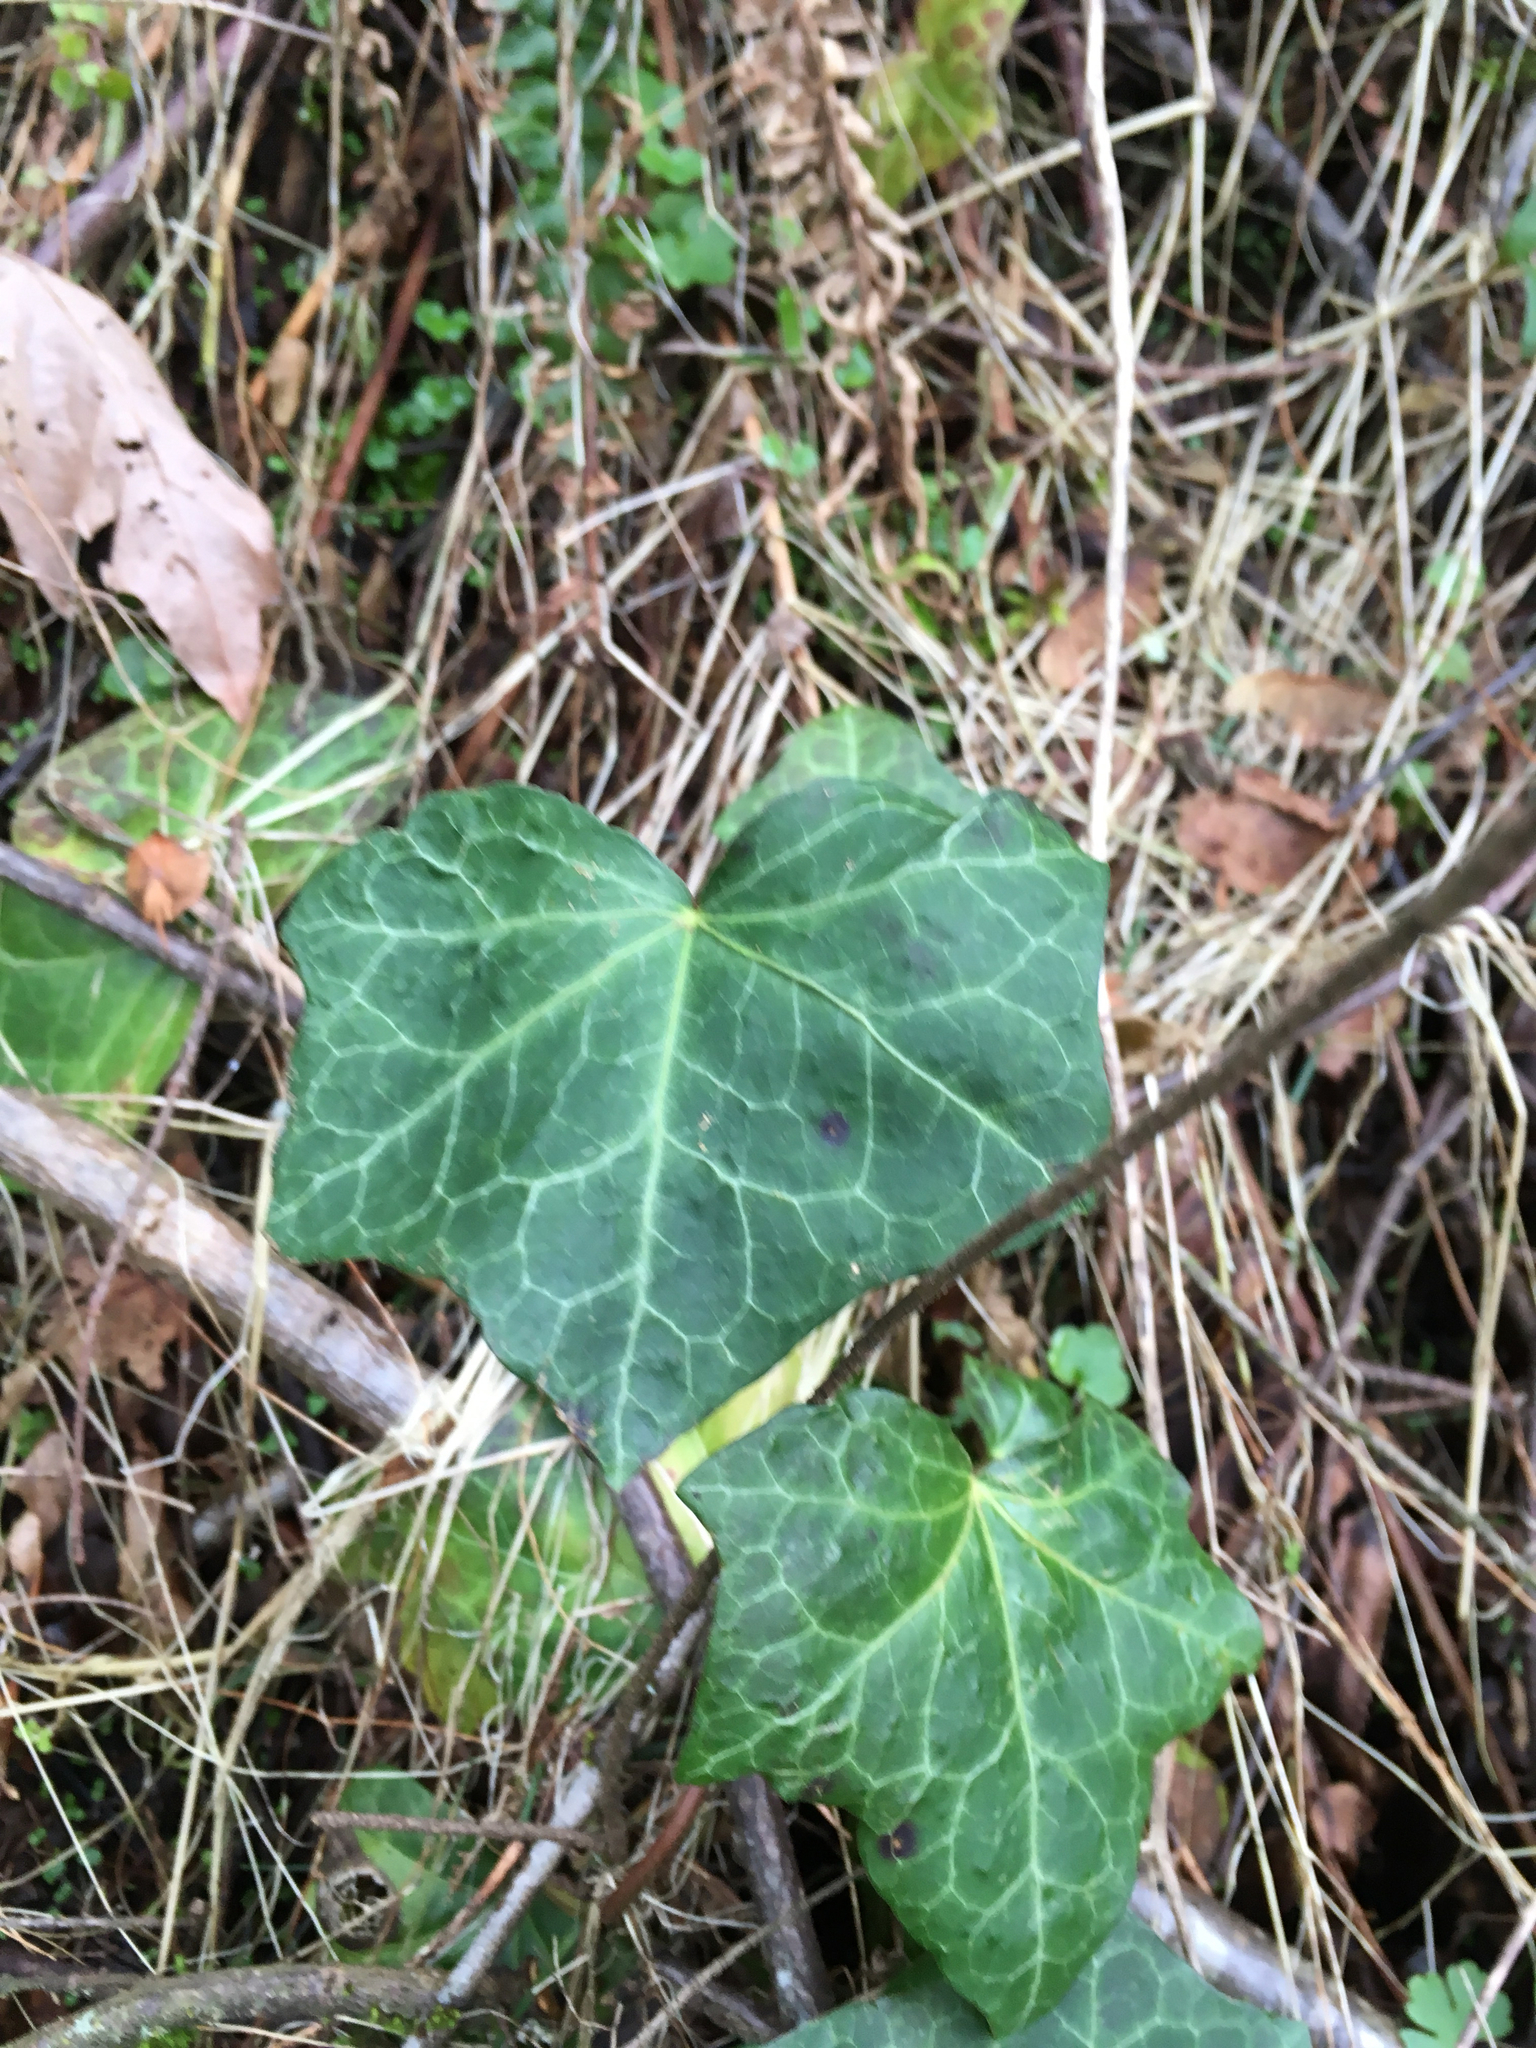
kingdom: Plantae
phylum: Tracheophyta
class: Magnoliopsida
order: Apiales
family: Araliaceae
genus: Hedera
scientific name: Hedera hibernica
